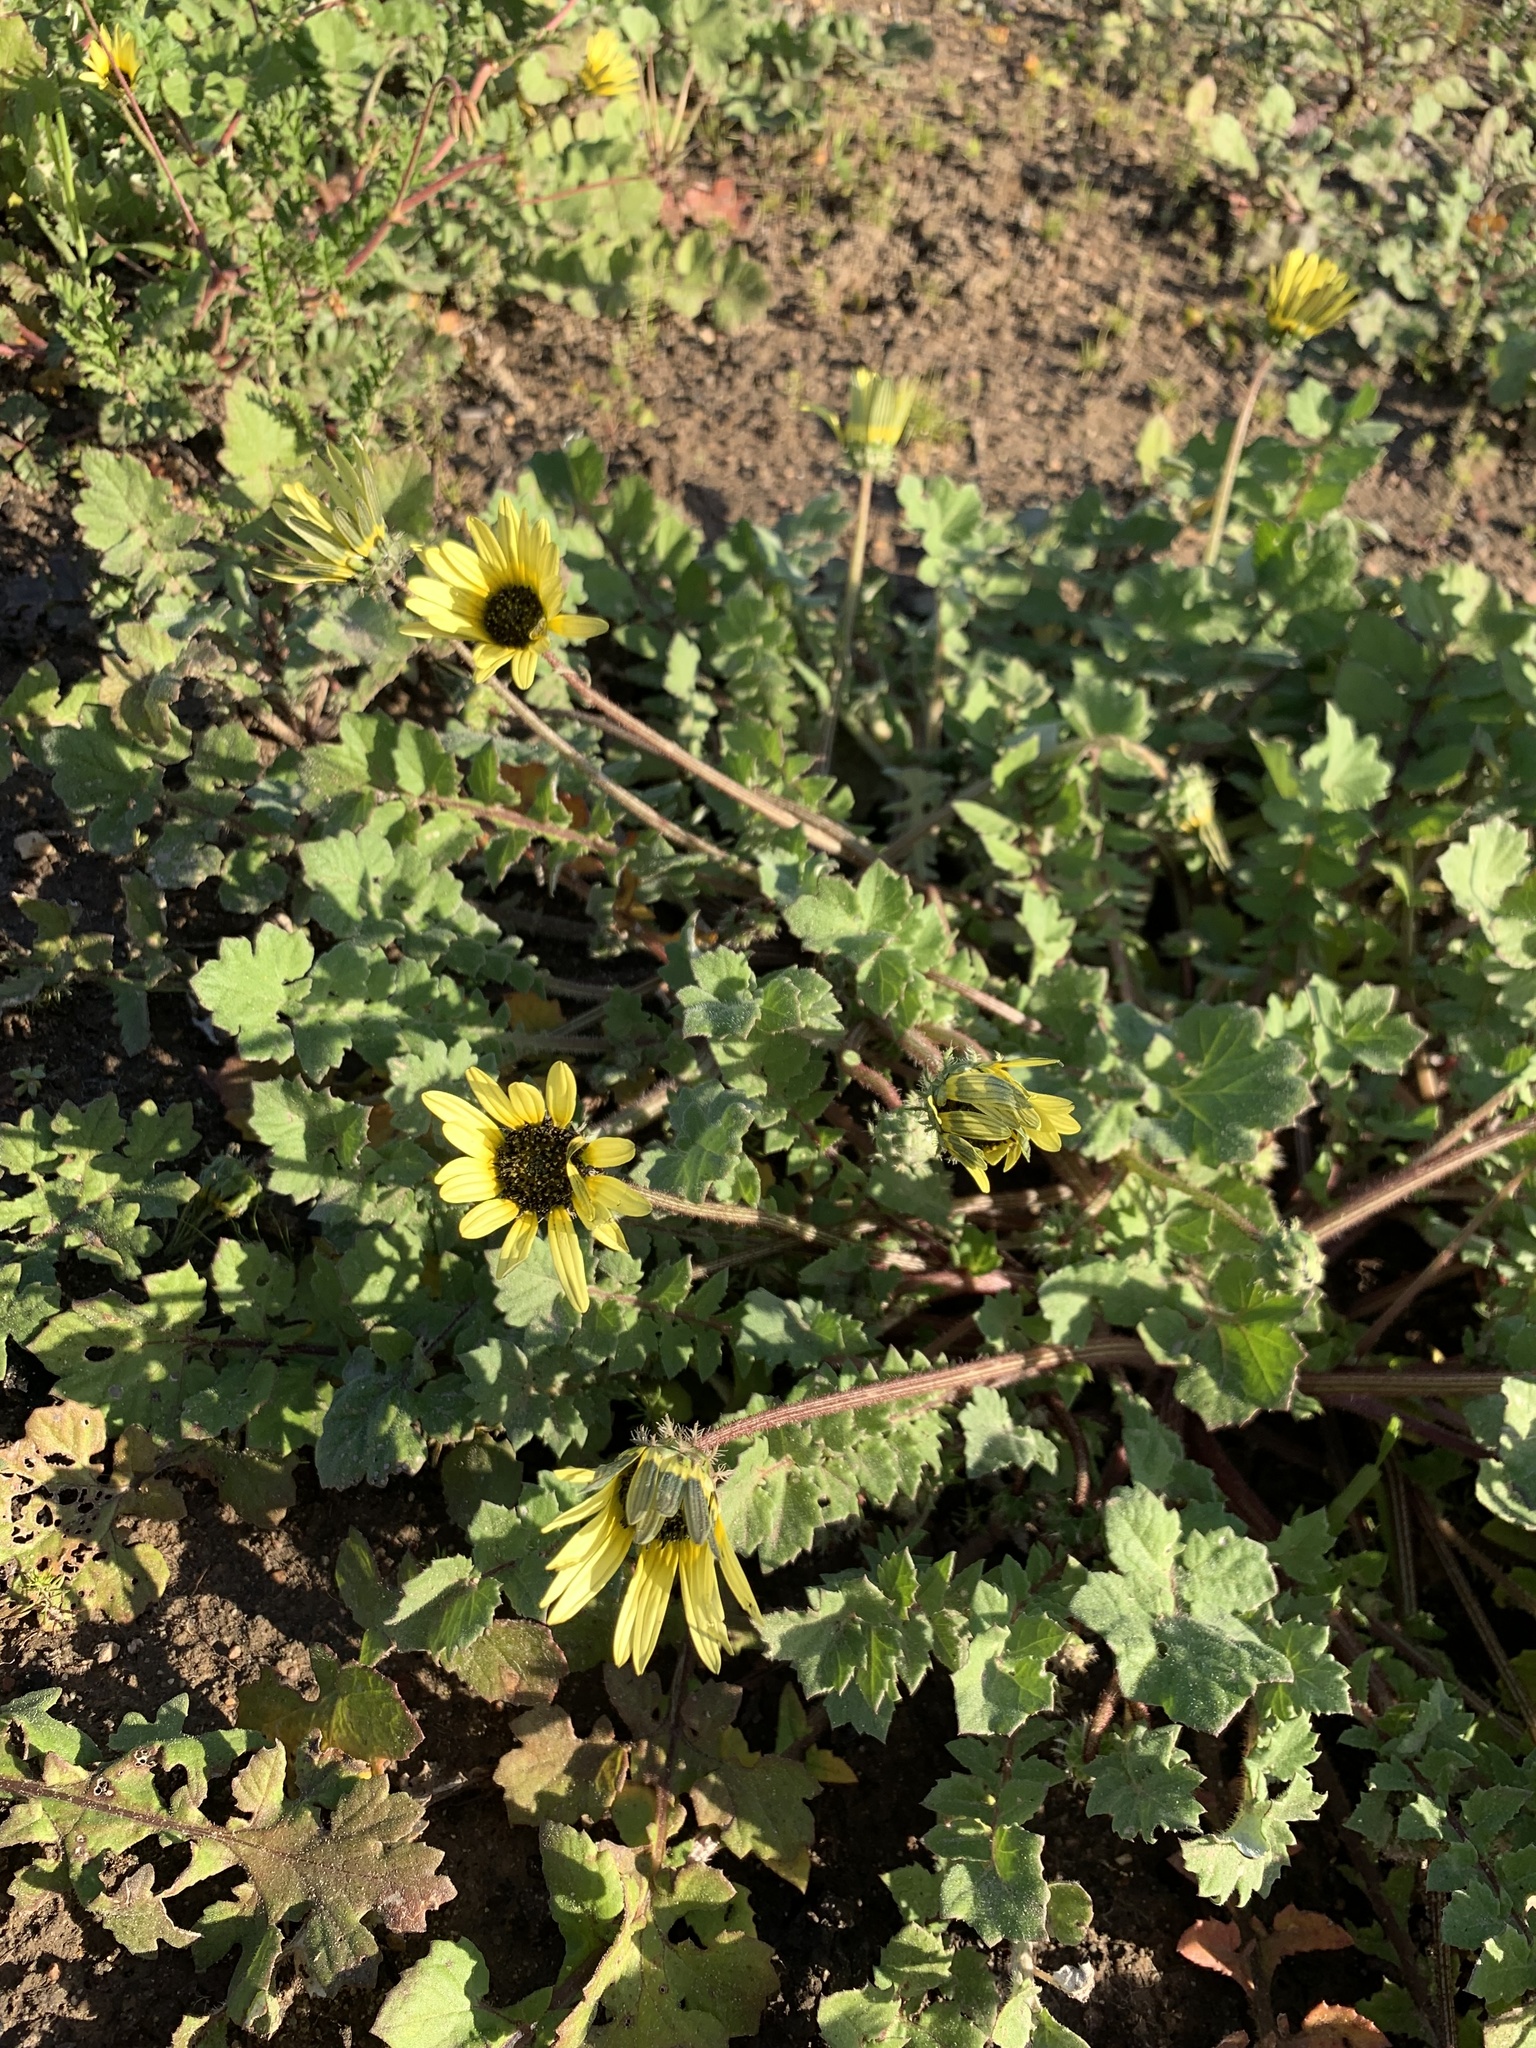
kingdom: Plantae
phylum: Tracheophyta
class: Magnoliopsida
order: Asterales
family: Asteraceae
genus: Arctotheca
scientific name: Arctotheca calendula
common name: Capeweed
